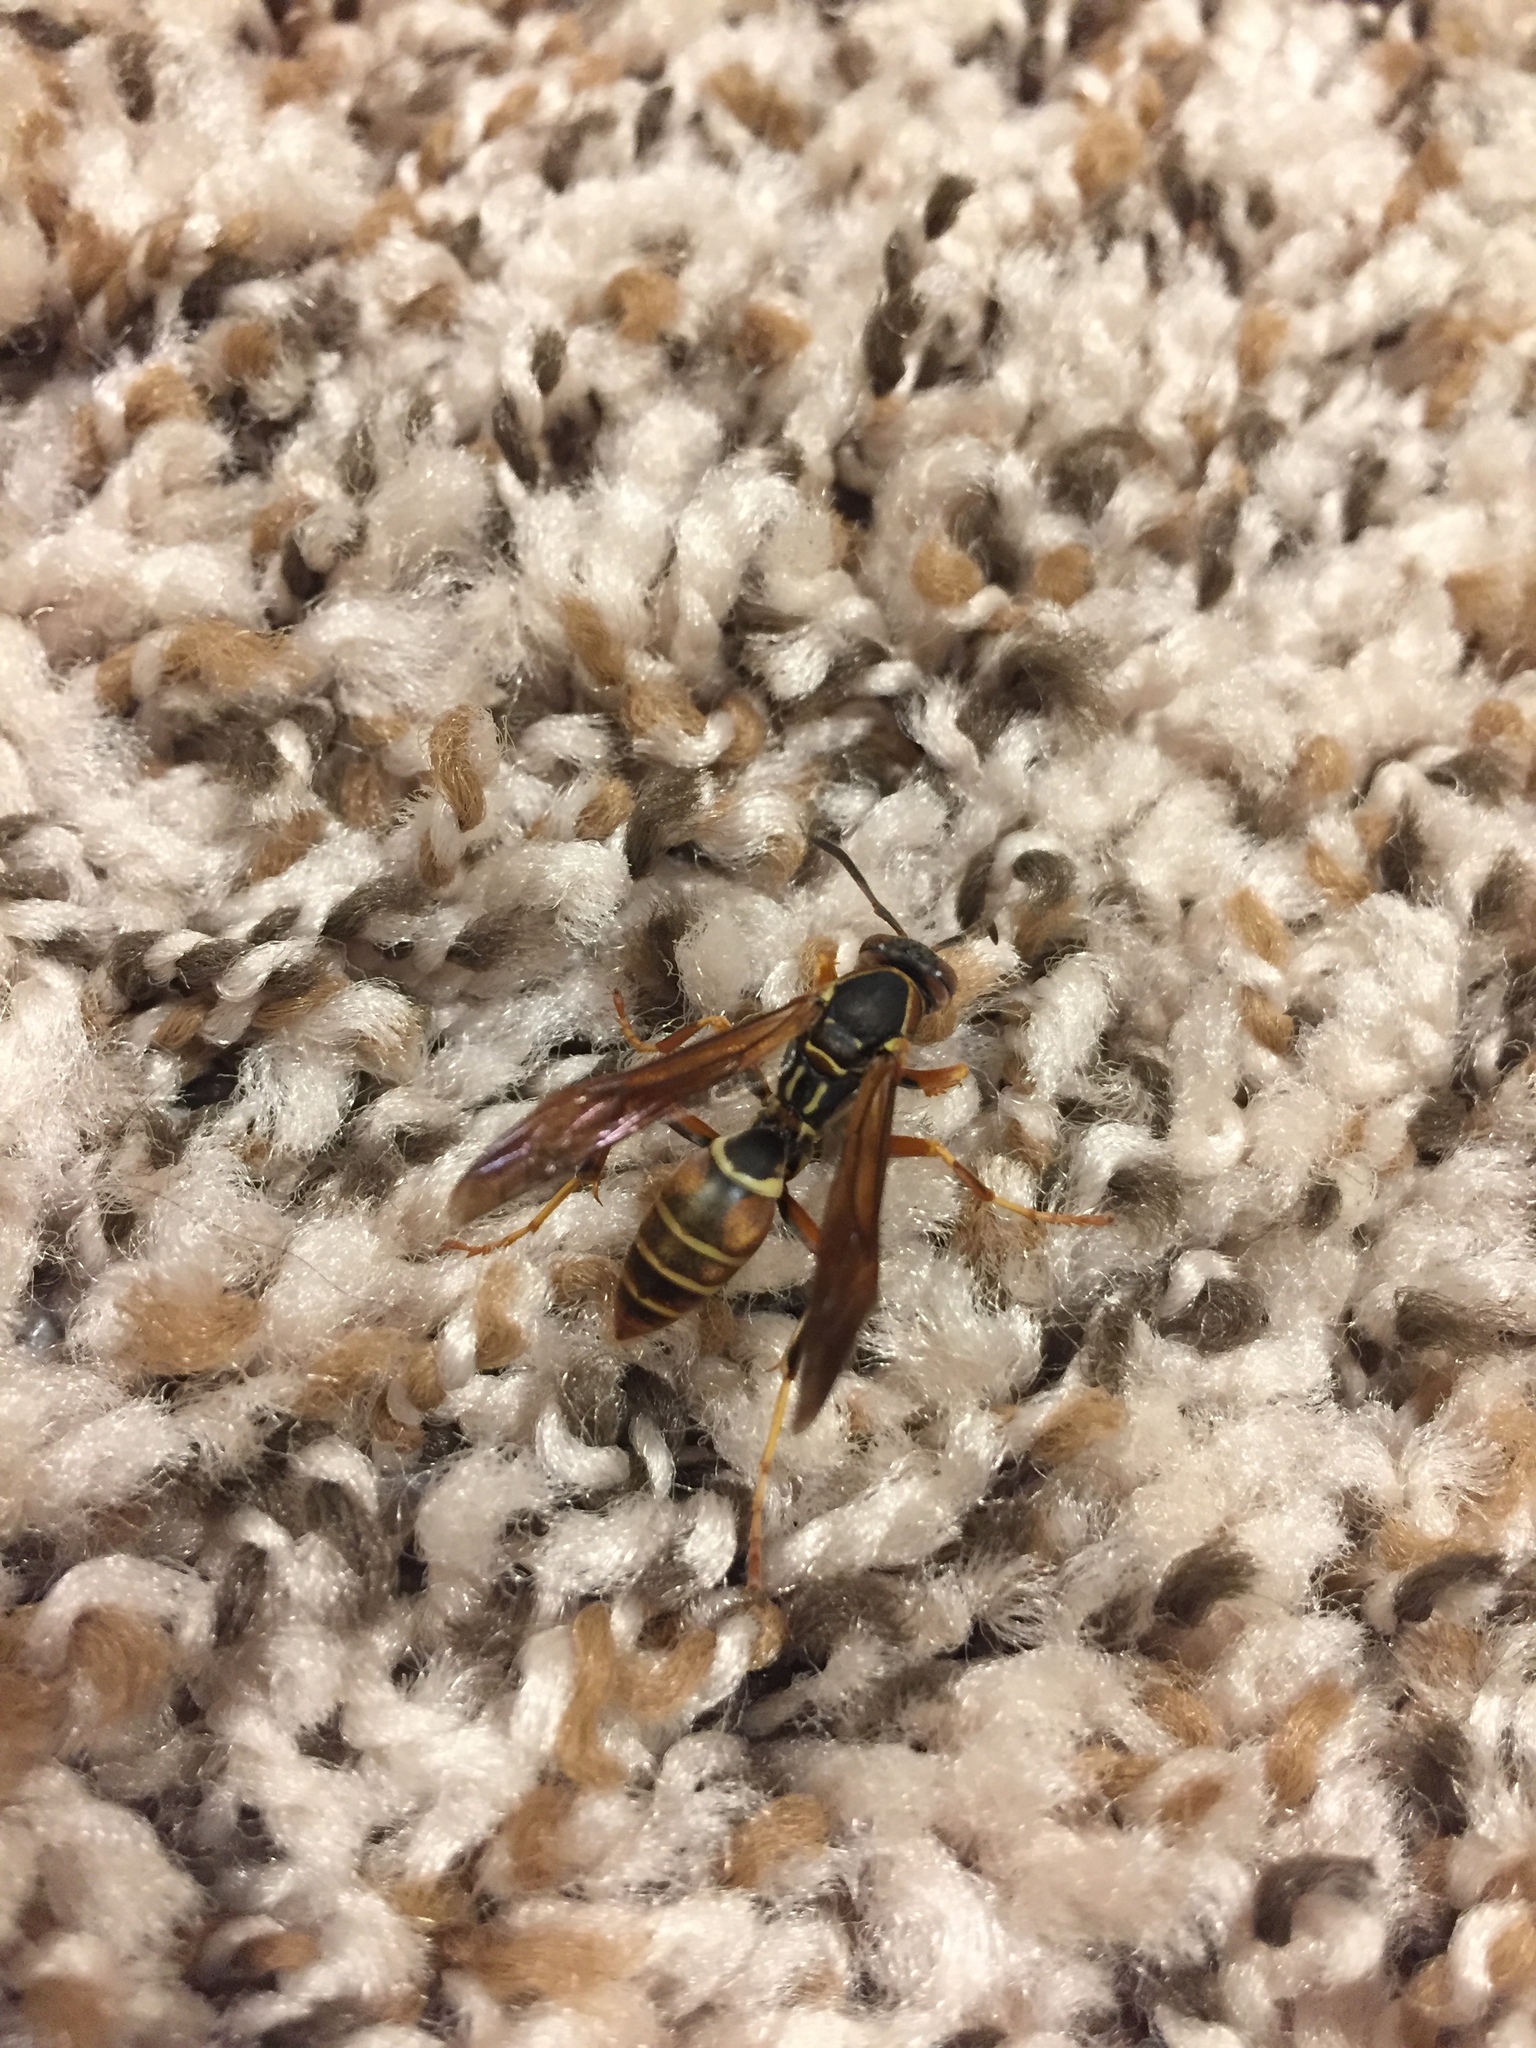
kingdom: Animalia
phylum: Arthropoda
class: Insecta
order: Hymenoptera
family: Eumenidae
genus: Polistes
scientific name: Polistes fuscatus
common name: Dark paper wasp
